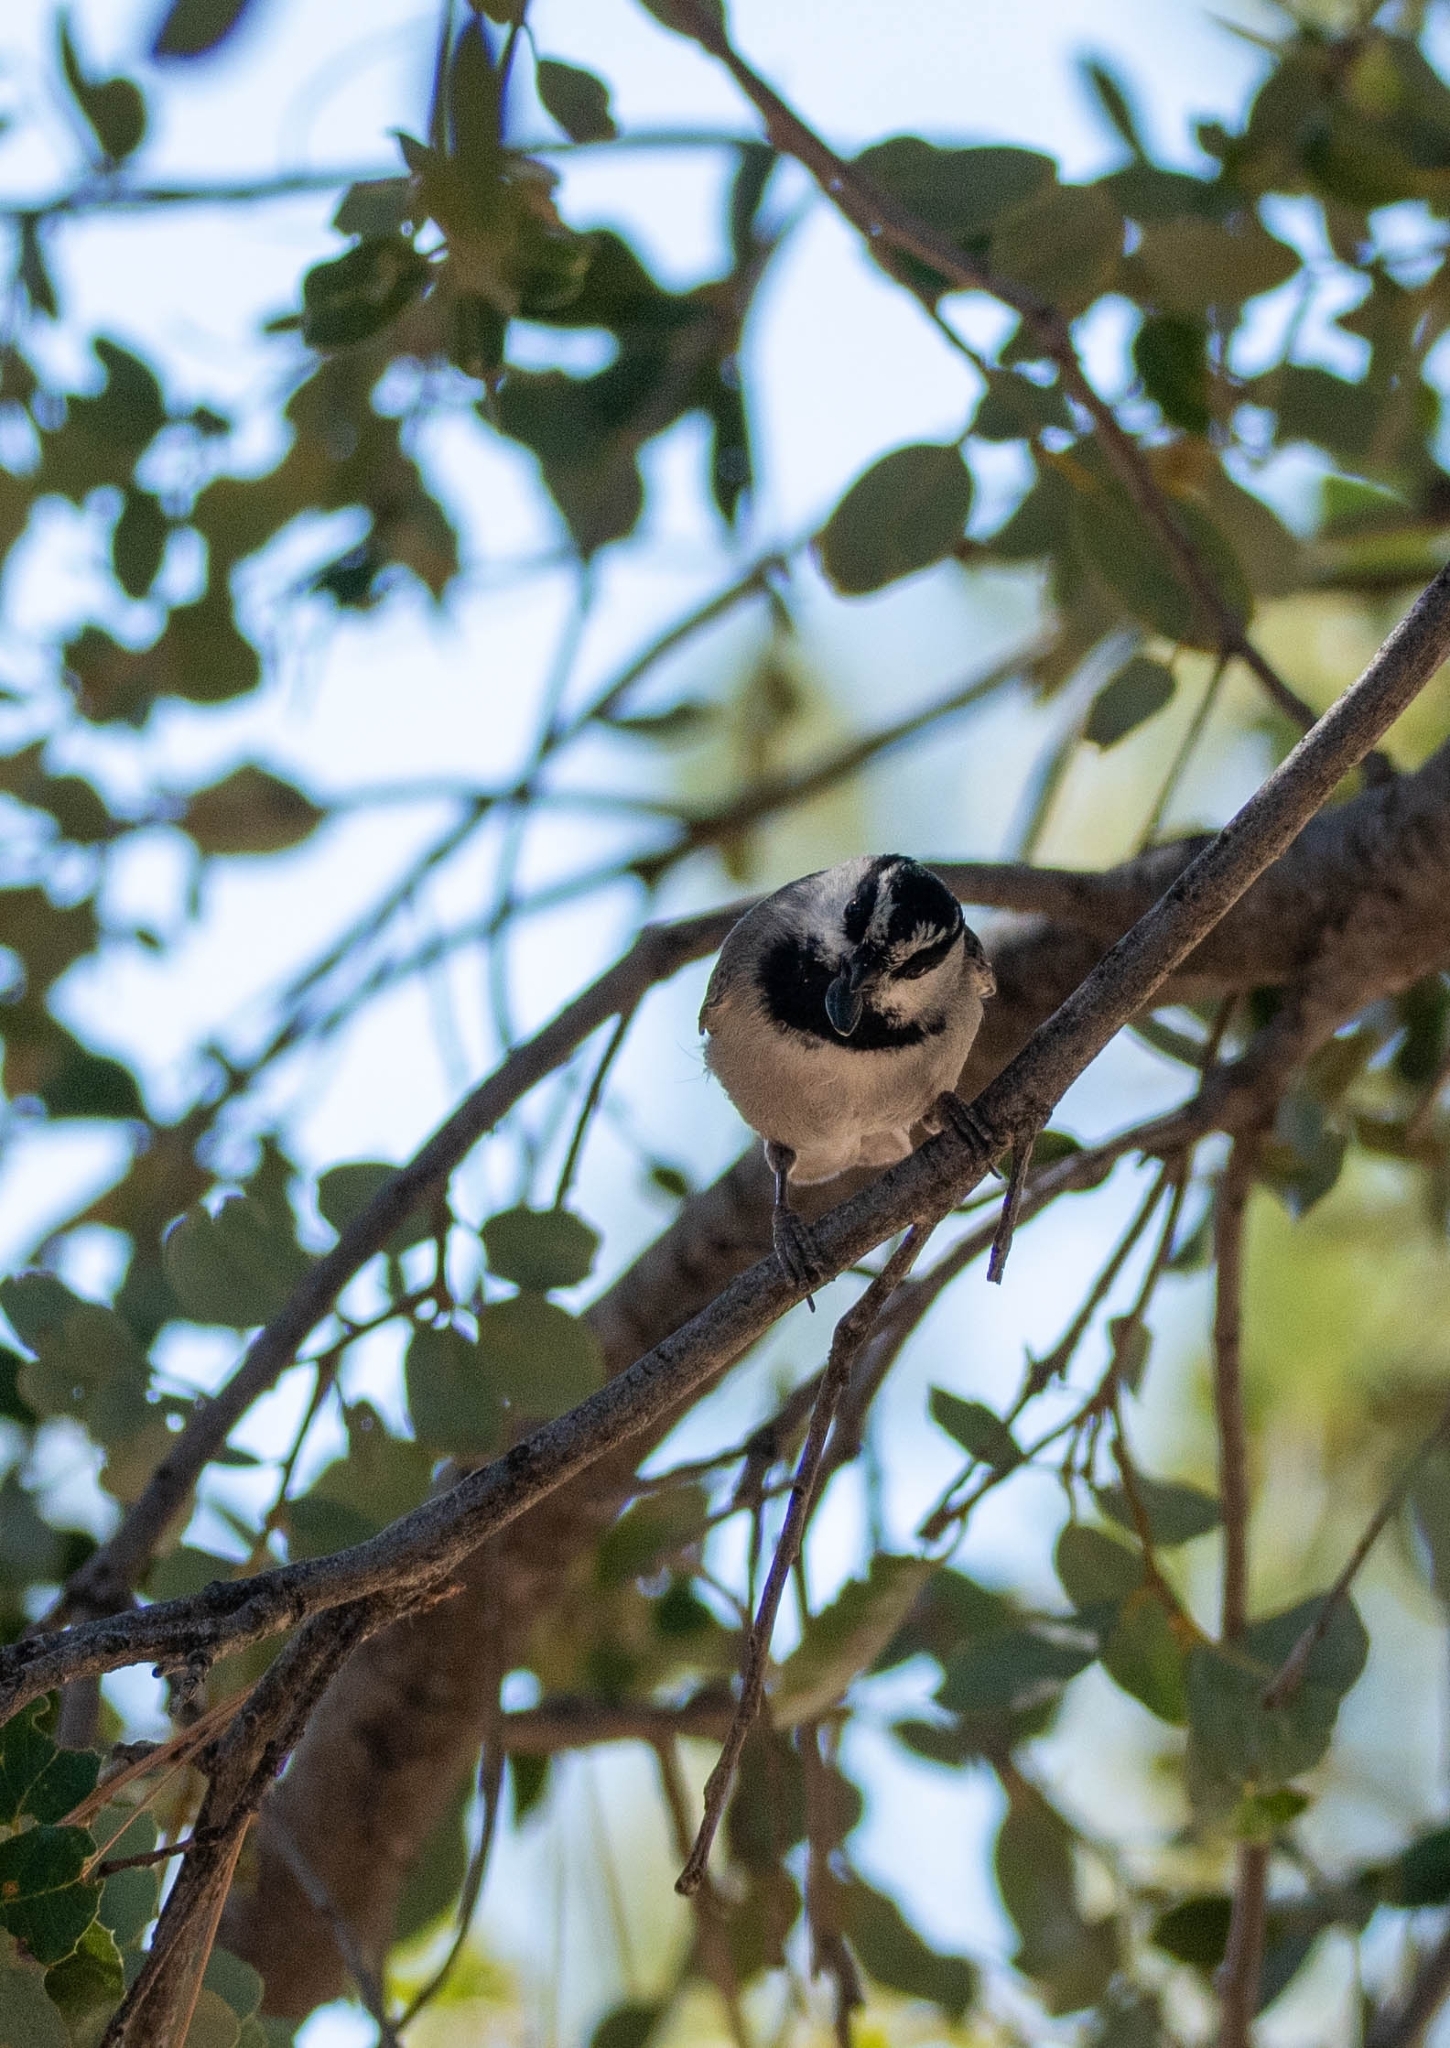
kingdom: Animalia
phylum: Chordata
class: Aves
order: Passeriformes
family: Paridae
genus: Poecile
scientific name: Poecile gambeli
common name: Mountain chickadee
